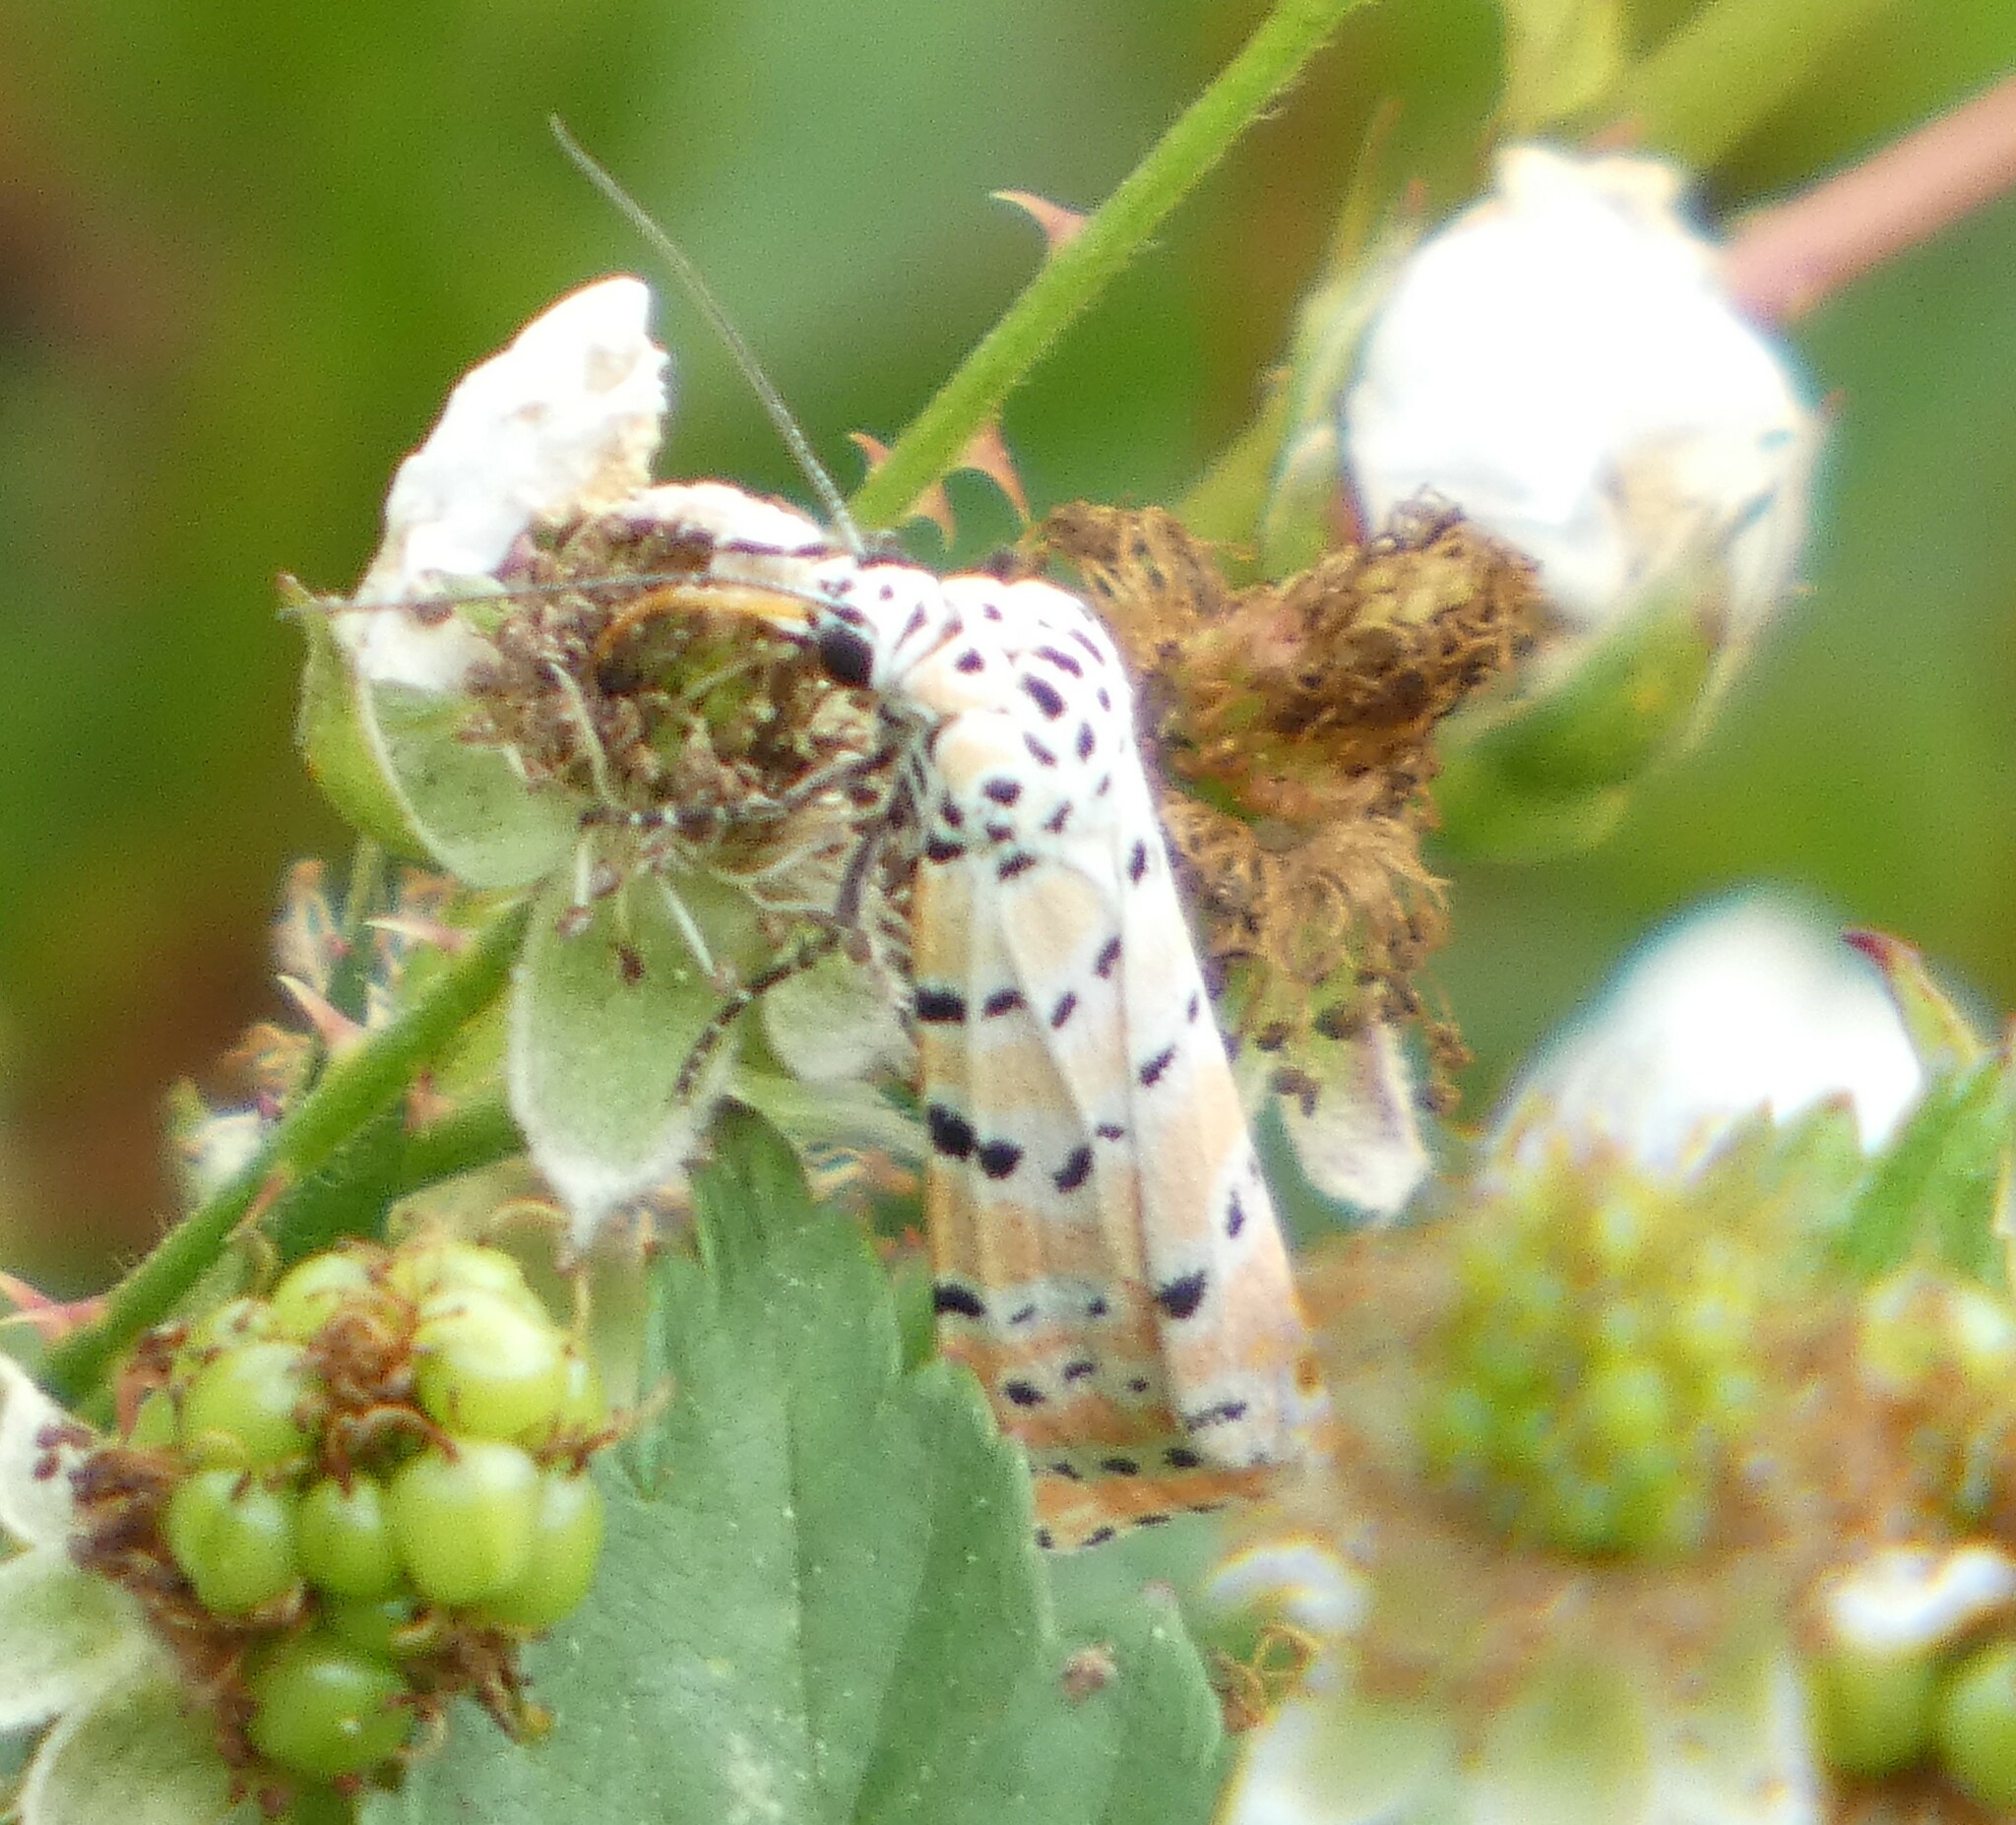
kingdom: Animalia
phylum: Arthropoda
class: Insecta
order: Lepidoptera
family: Erebidae
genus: Utetheisa
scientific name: Utetheisa ornatrix
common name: Beautiful utetheisa
